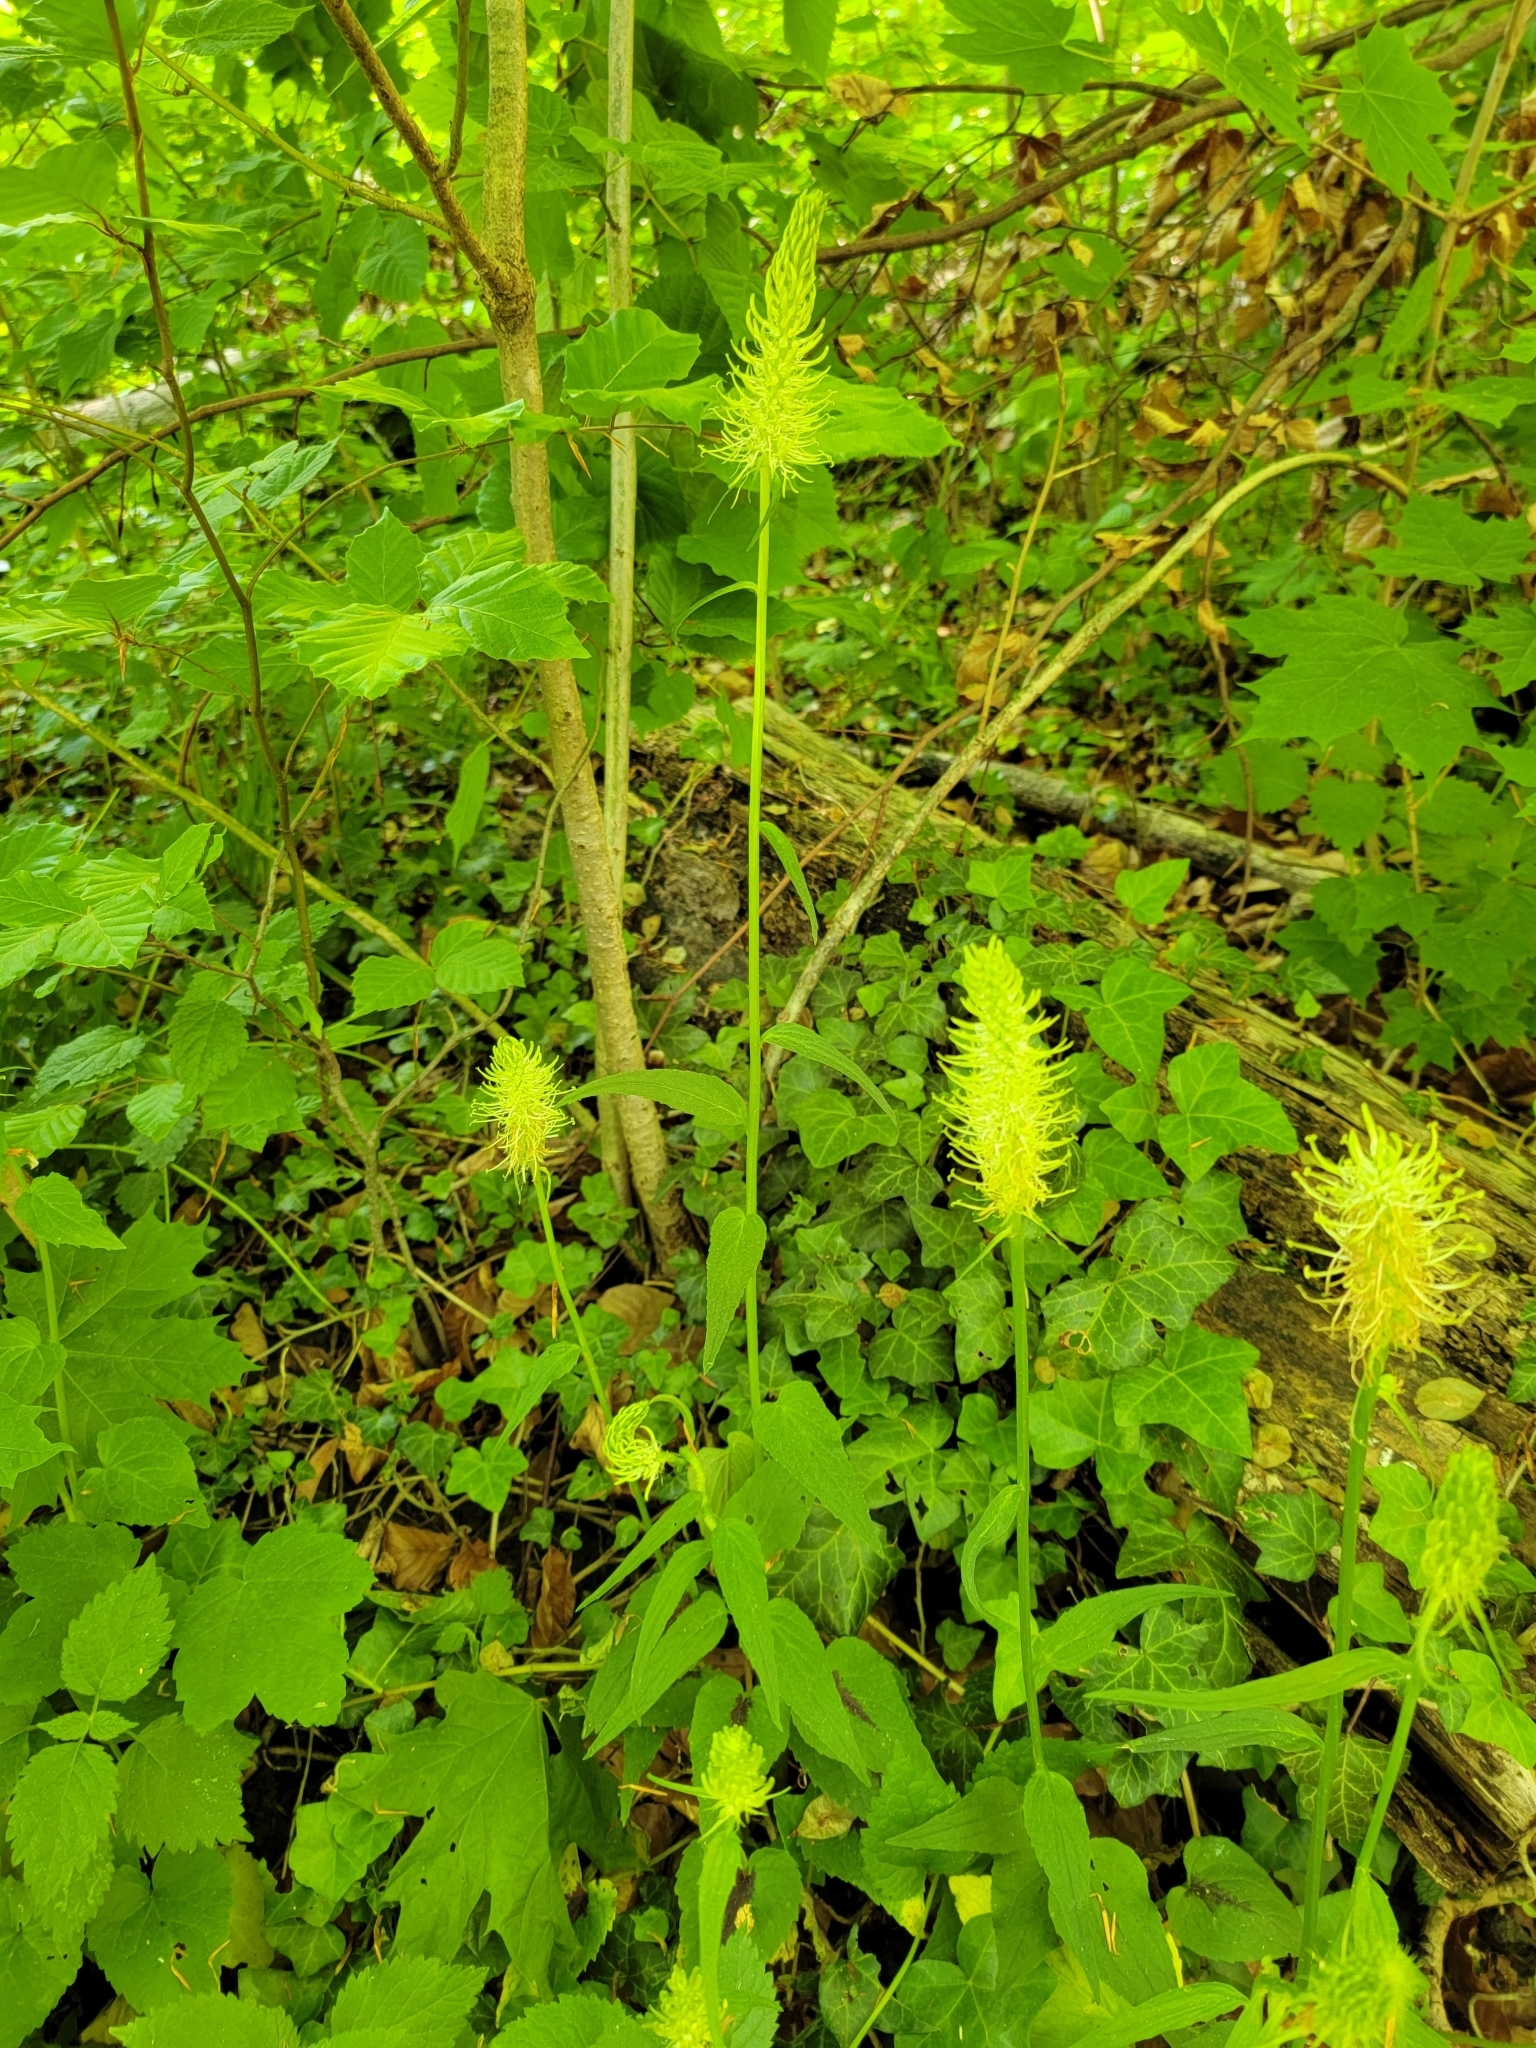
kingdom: Plantae
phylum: Tracheophyta
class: Magnoliopsida
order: Asterales
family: Campanulaceae
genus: Phyteuma
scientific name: Phyteuma spicatum
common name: Spiked rampion
